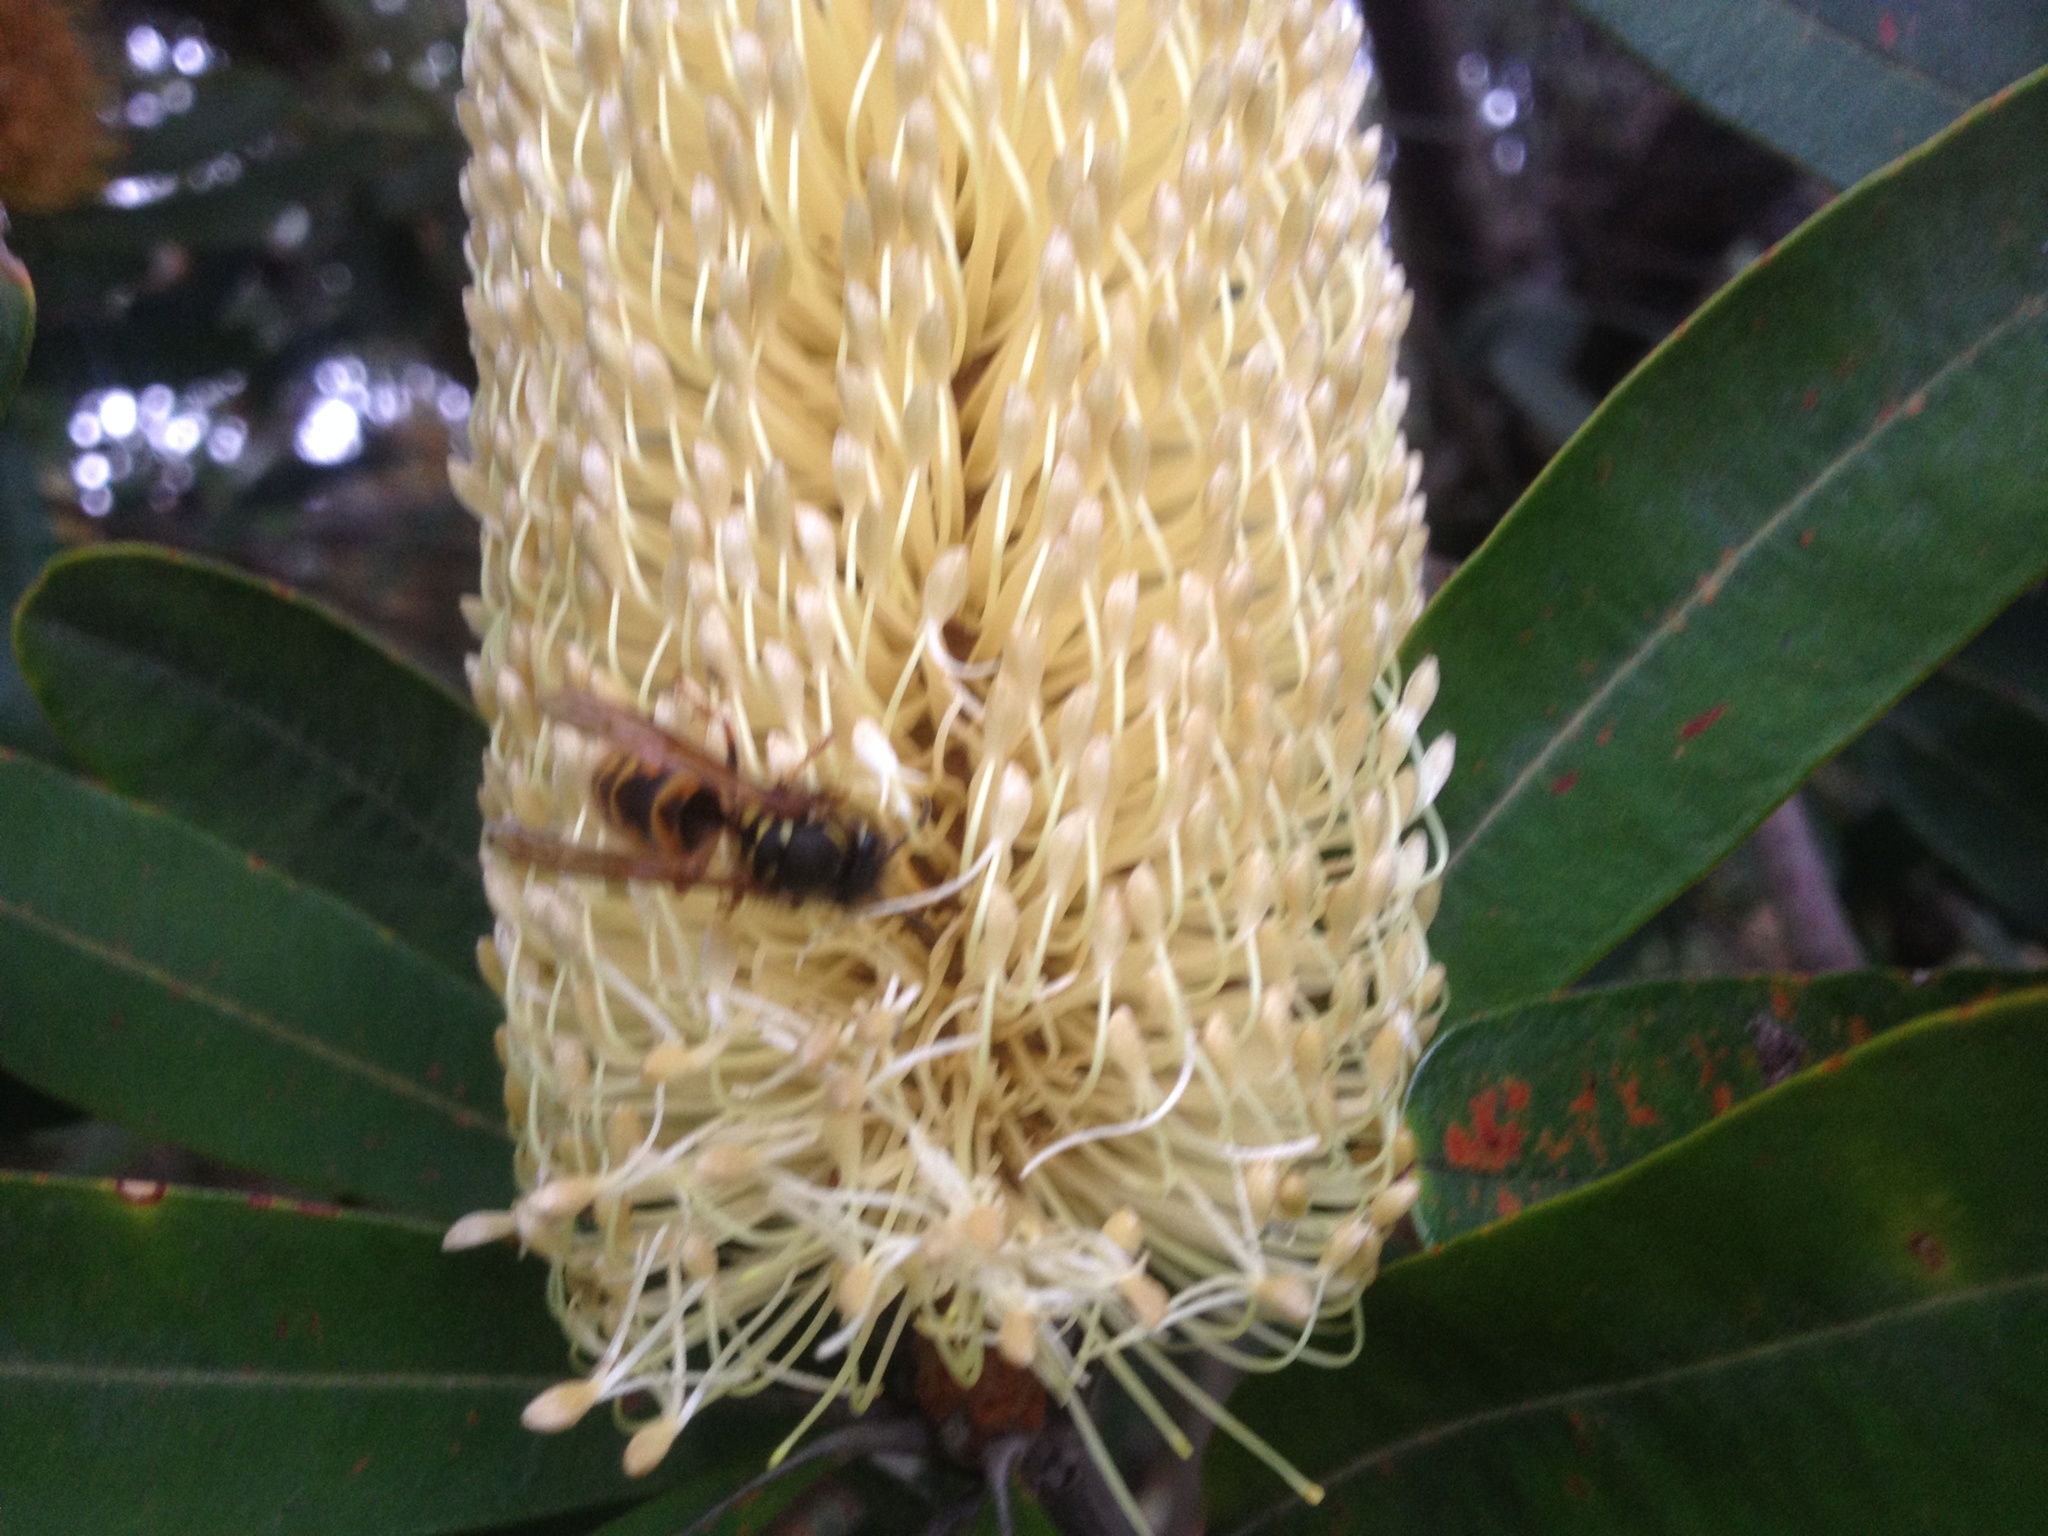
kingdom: Animalia
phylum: Arthropoda
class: Insecta
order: Hymenoptera
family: Vespidae
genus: Vespula
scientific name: Vespula vulgaris
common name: Common wasp
